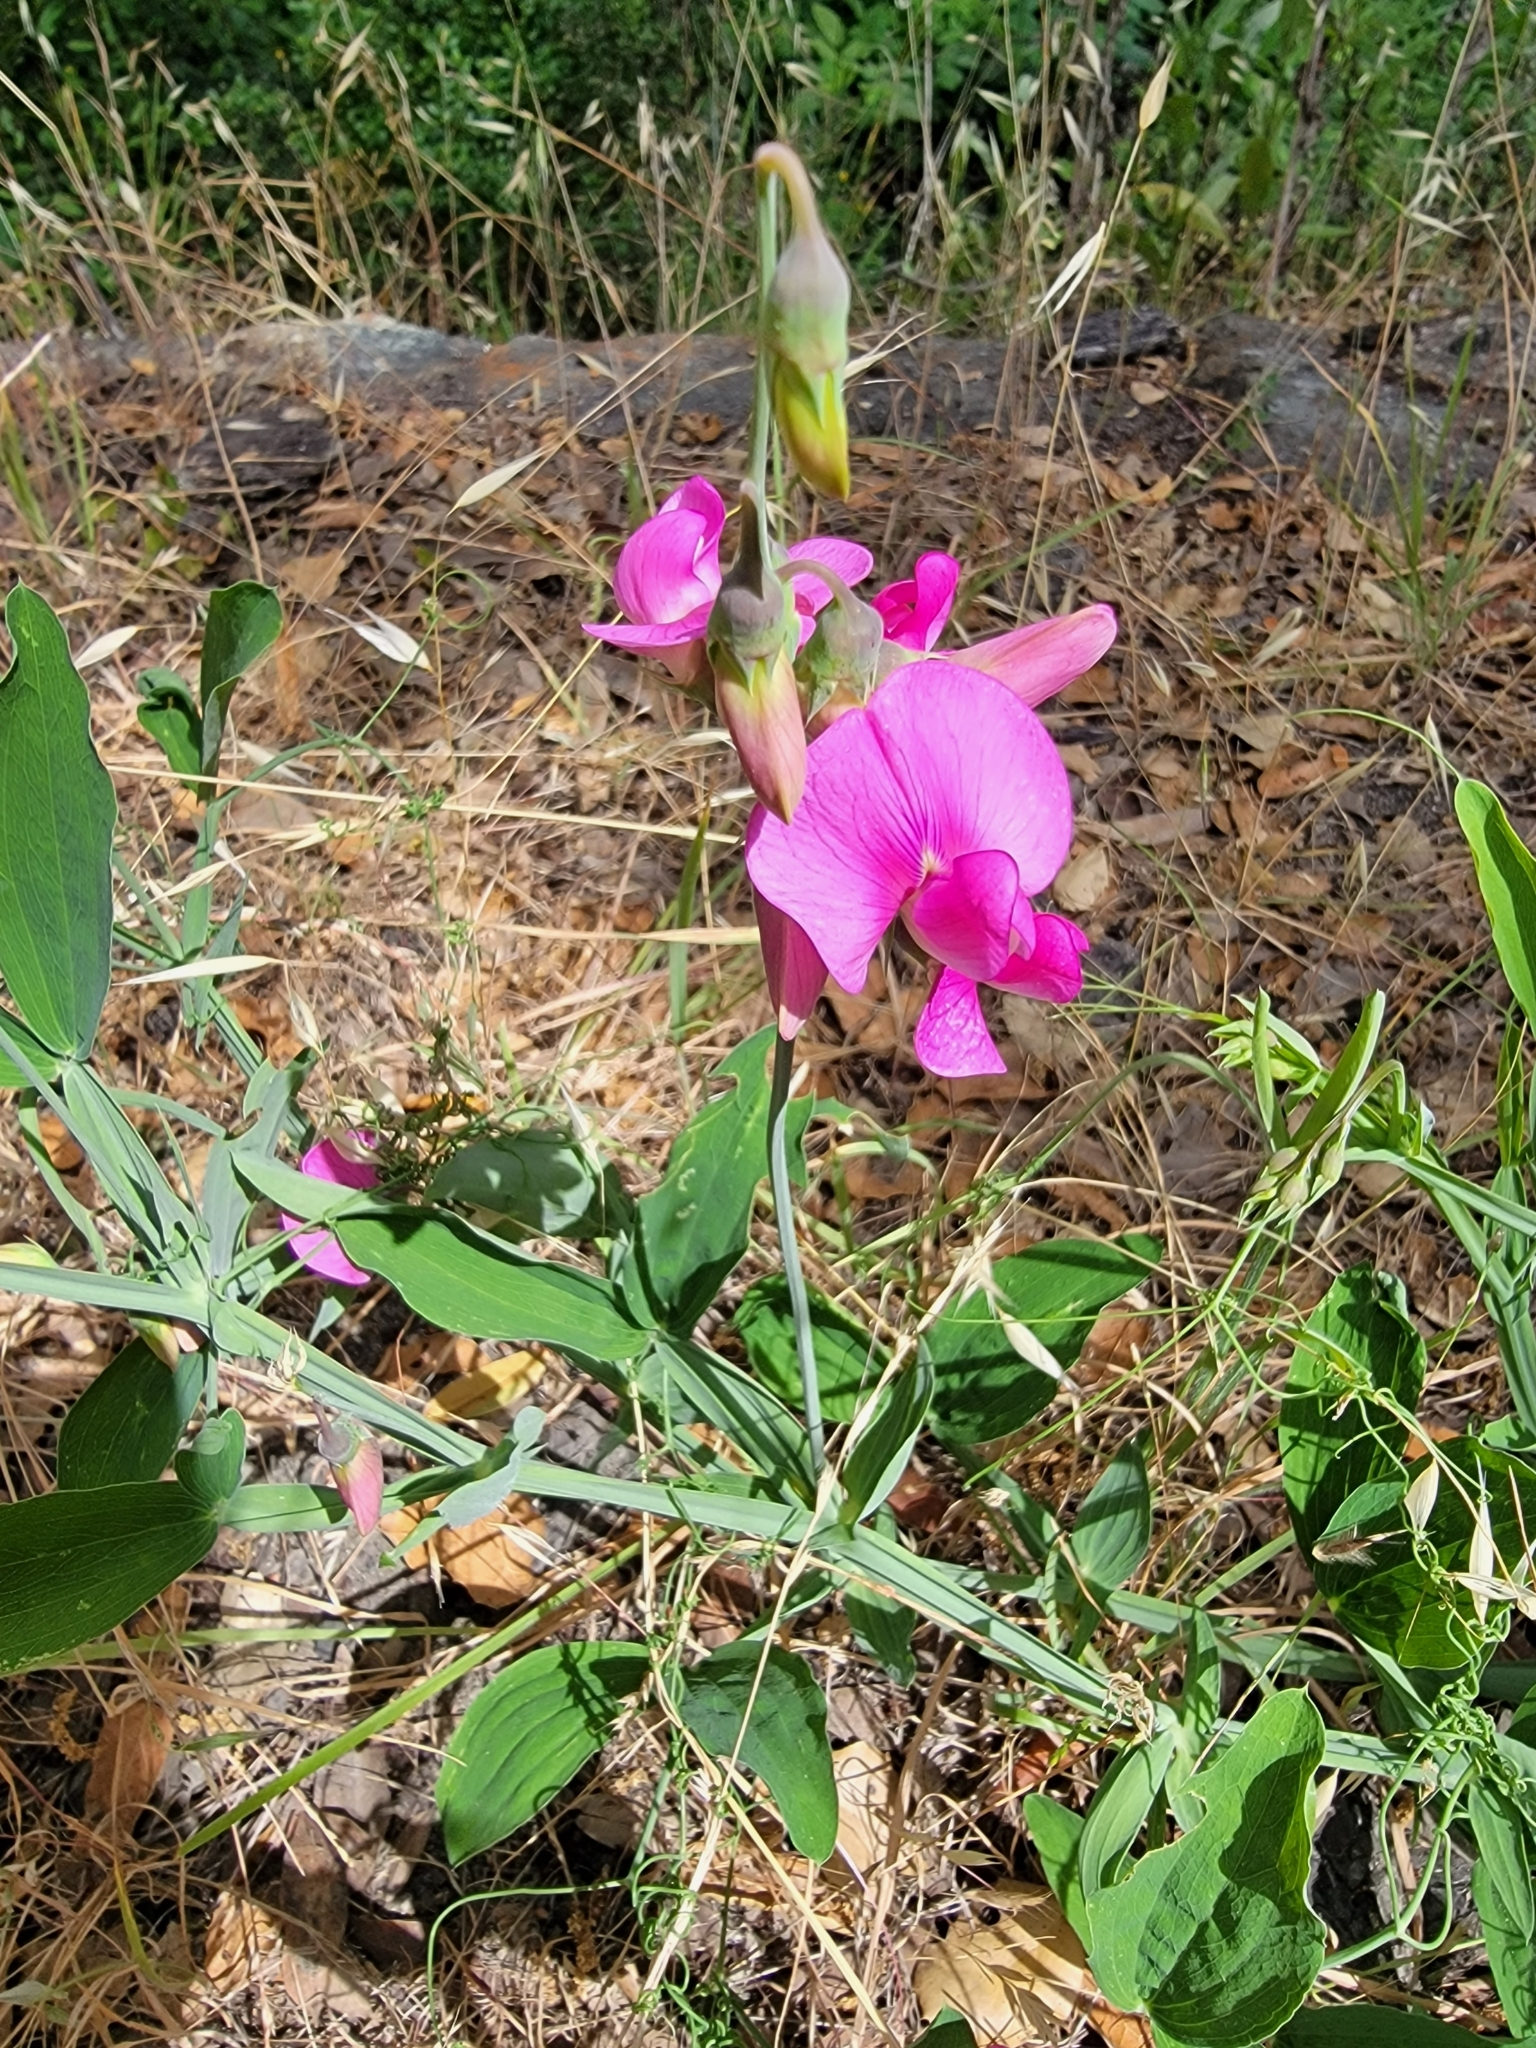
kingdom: Plantae
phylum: Tracheophyta
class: Magnoliopsida
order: Fabales
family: Fabaceae
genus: Lathyrus
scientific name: Lathyrus latifolius
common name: Perennial pea
